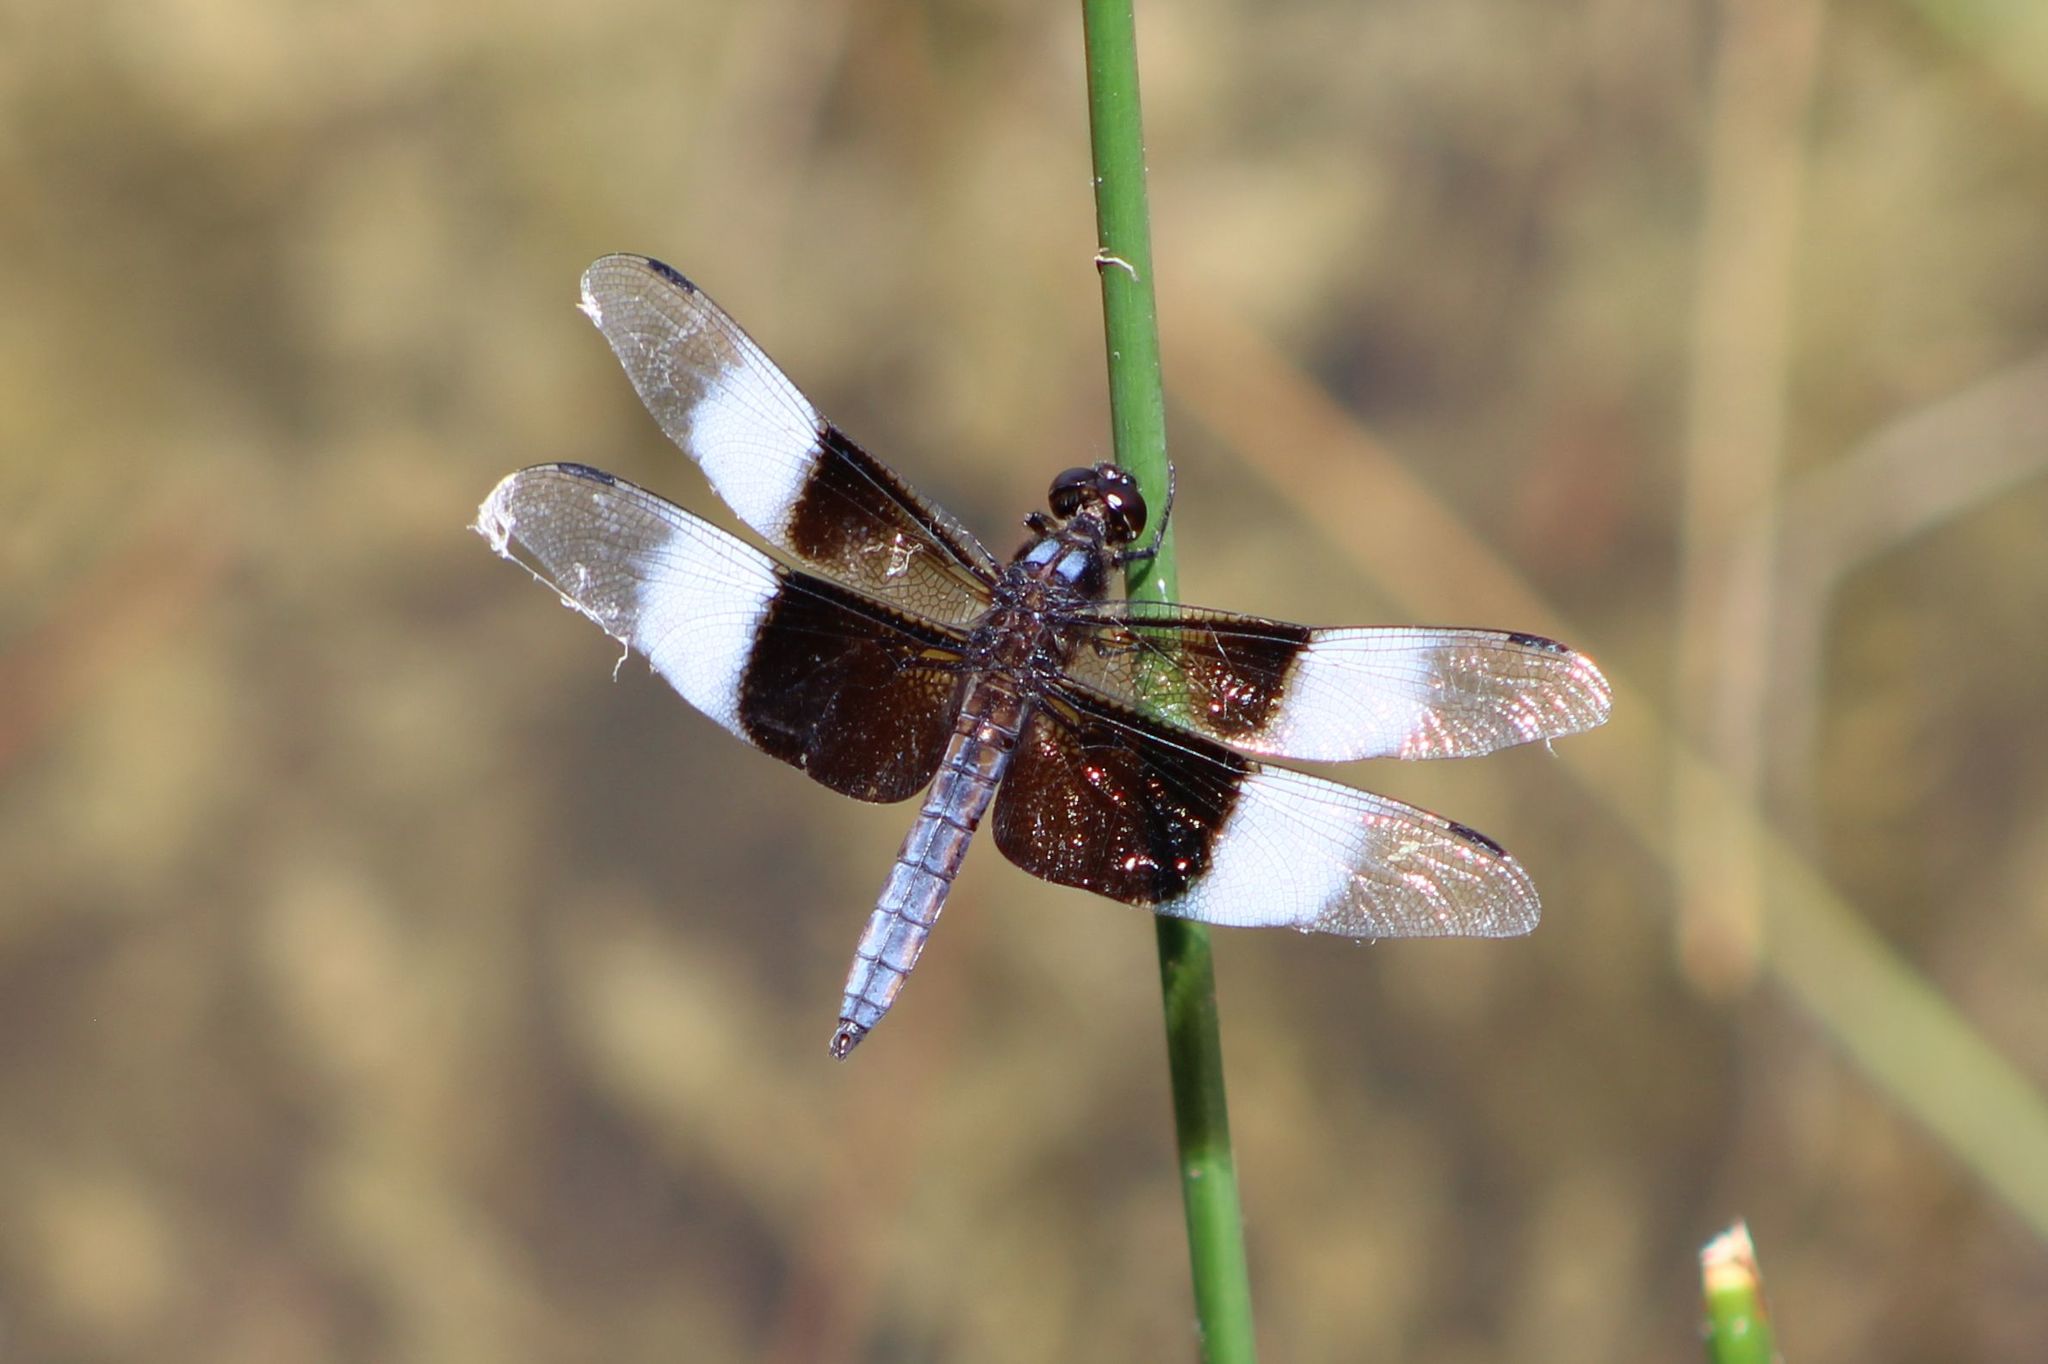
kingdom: Animalia
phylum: Arthropoda
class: Insecta
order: Odonata
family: Libellulidae
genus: Libellula
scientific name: Libellula luctuosa
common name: Widow skimmer
